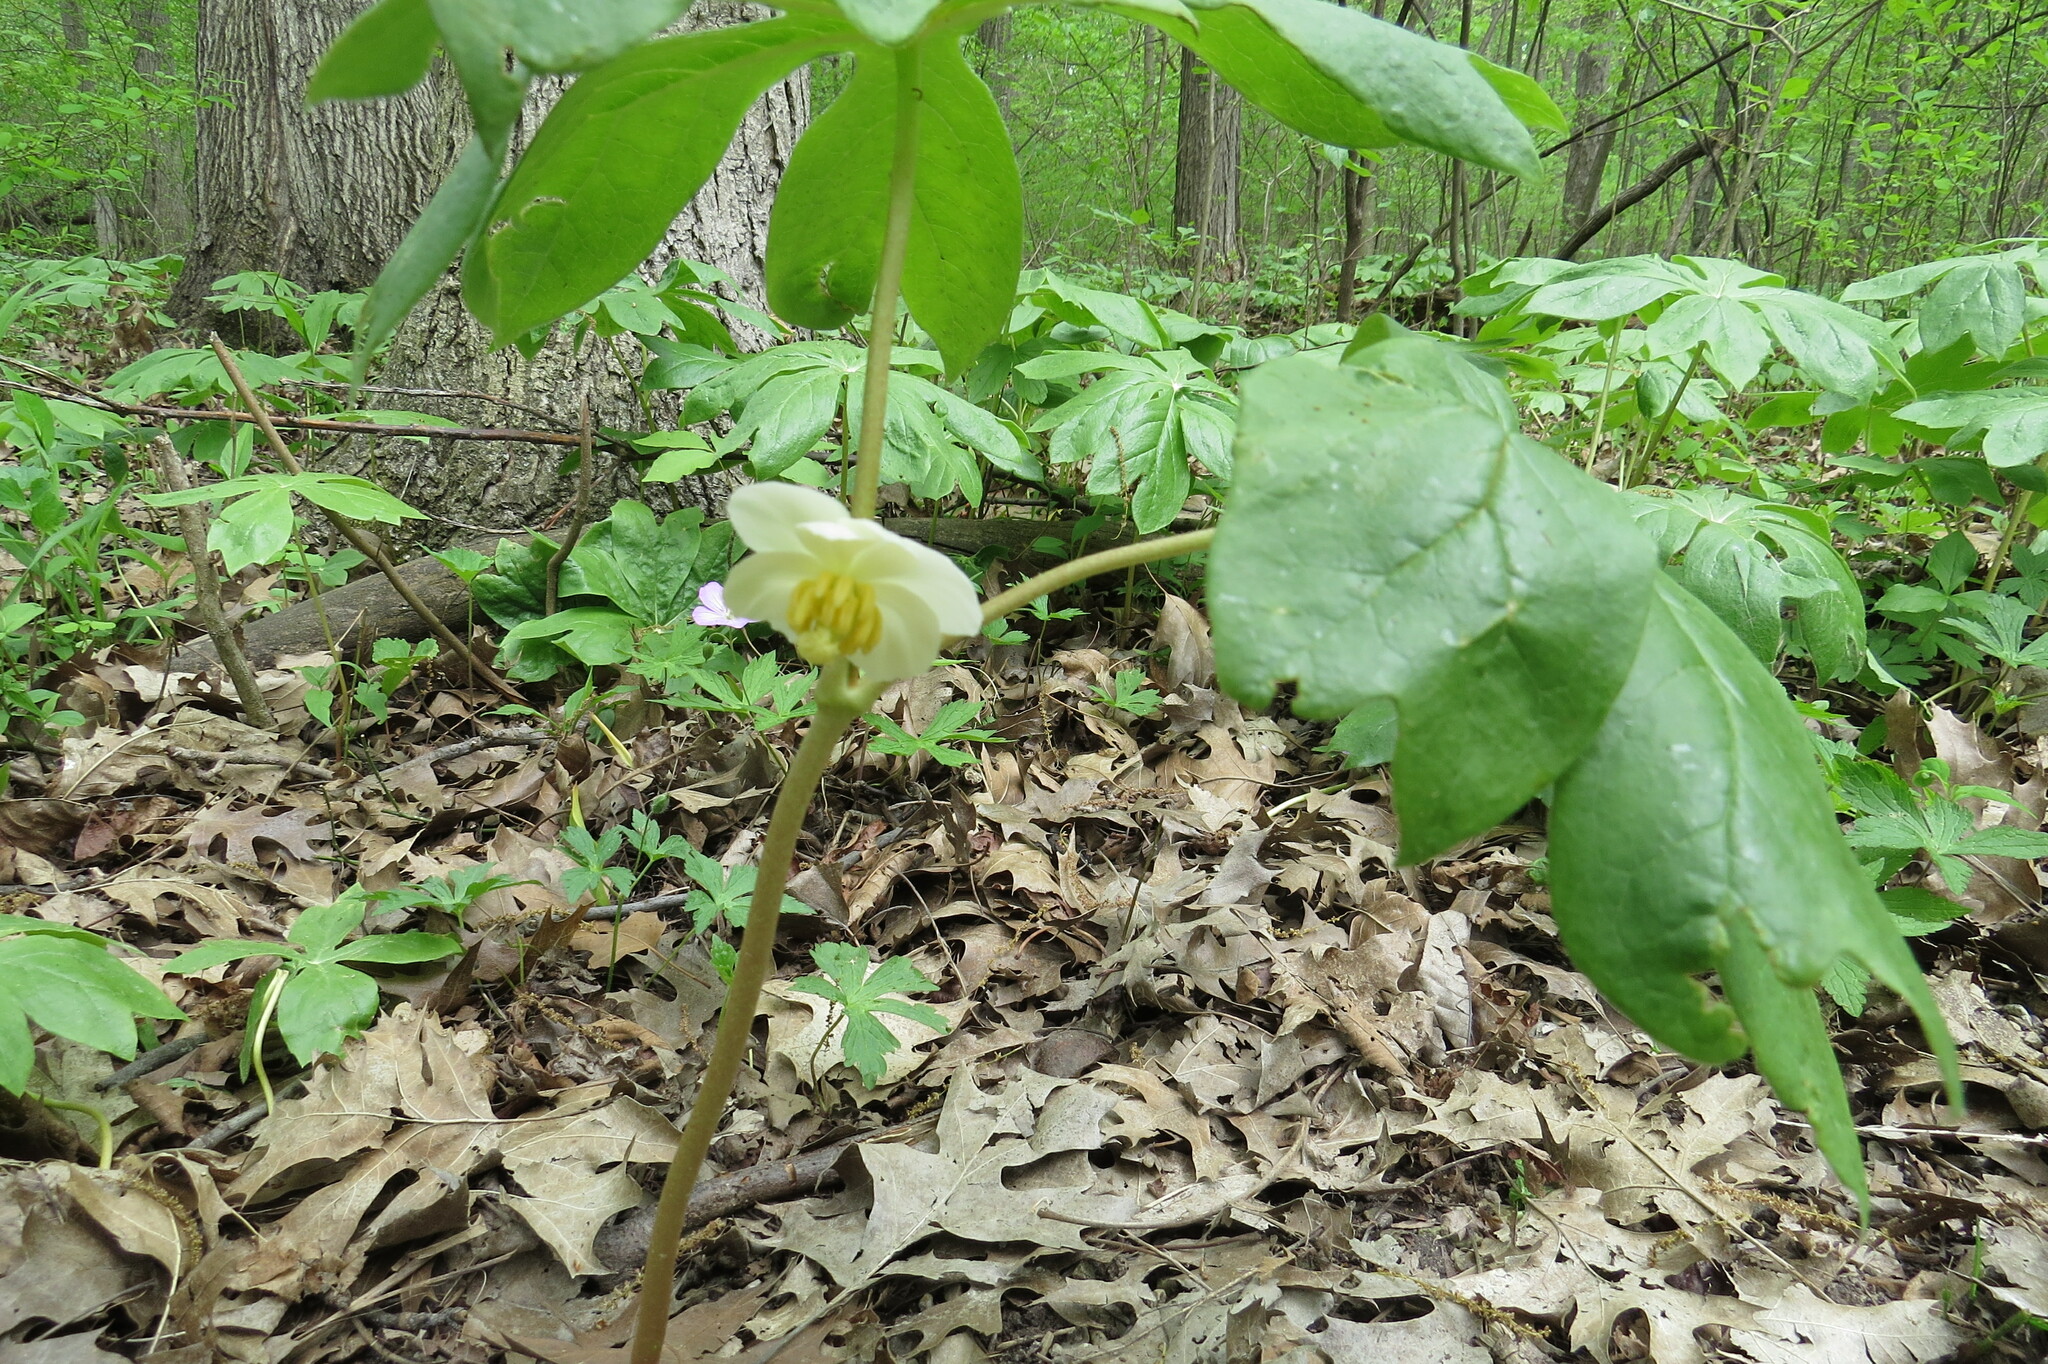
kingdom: Plantae
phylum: Tracheophyta
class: Magnoliopsida
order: Ranunculales
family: Berberidaceae
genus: Podophyllum
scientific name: Podophyllum peltatum
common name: Wild mandrake
